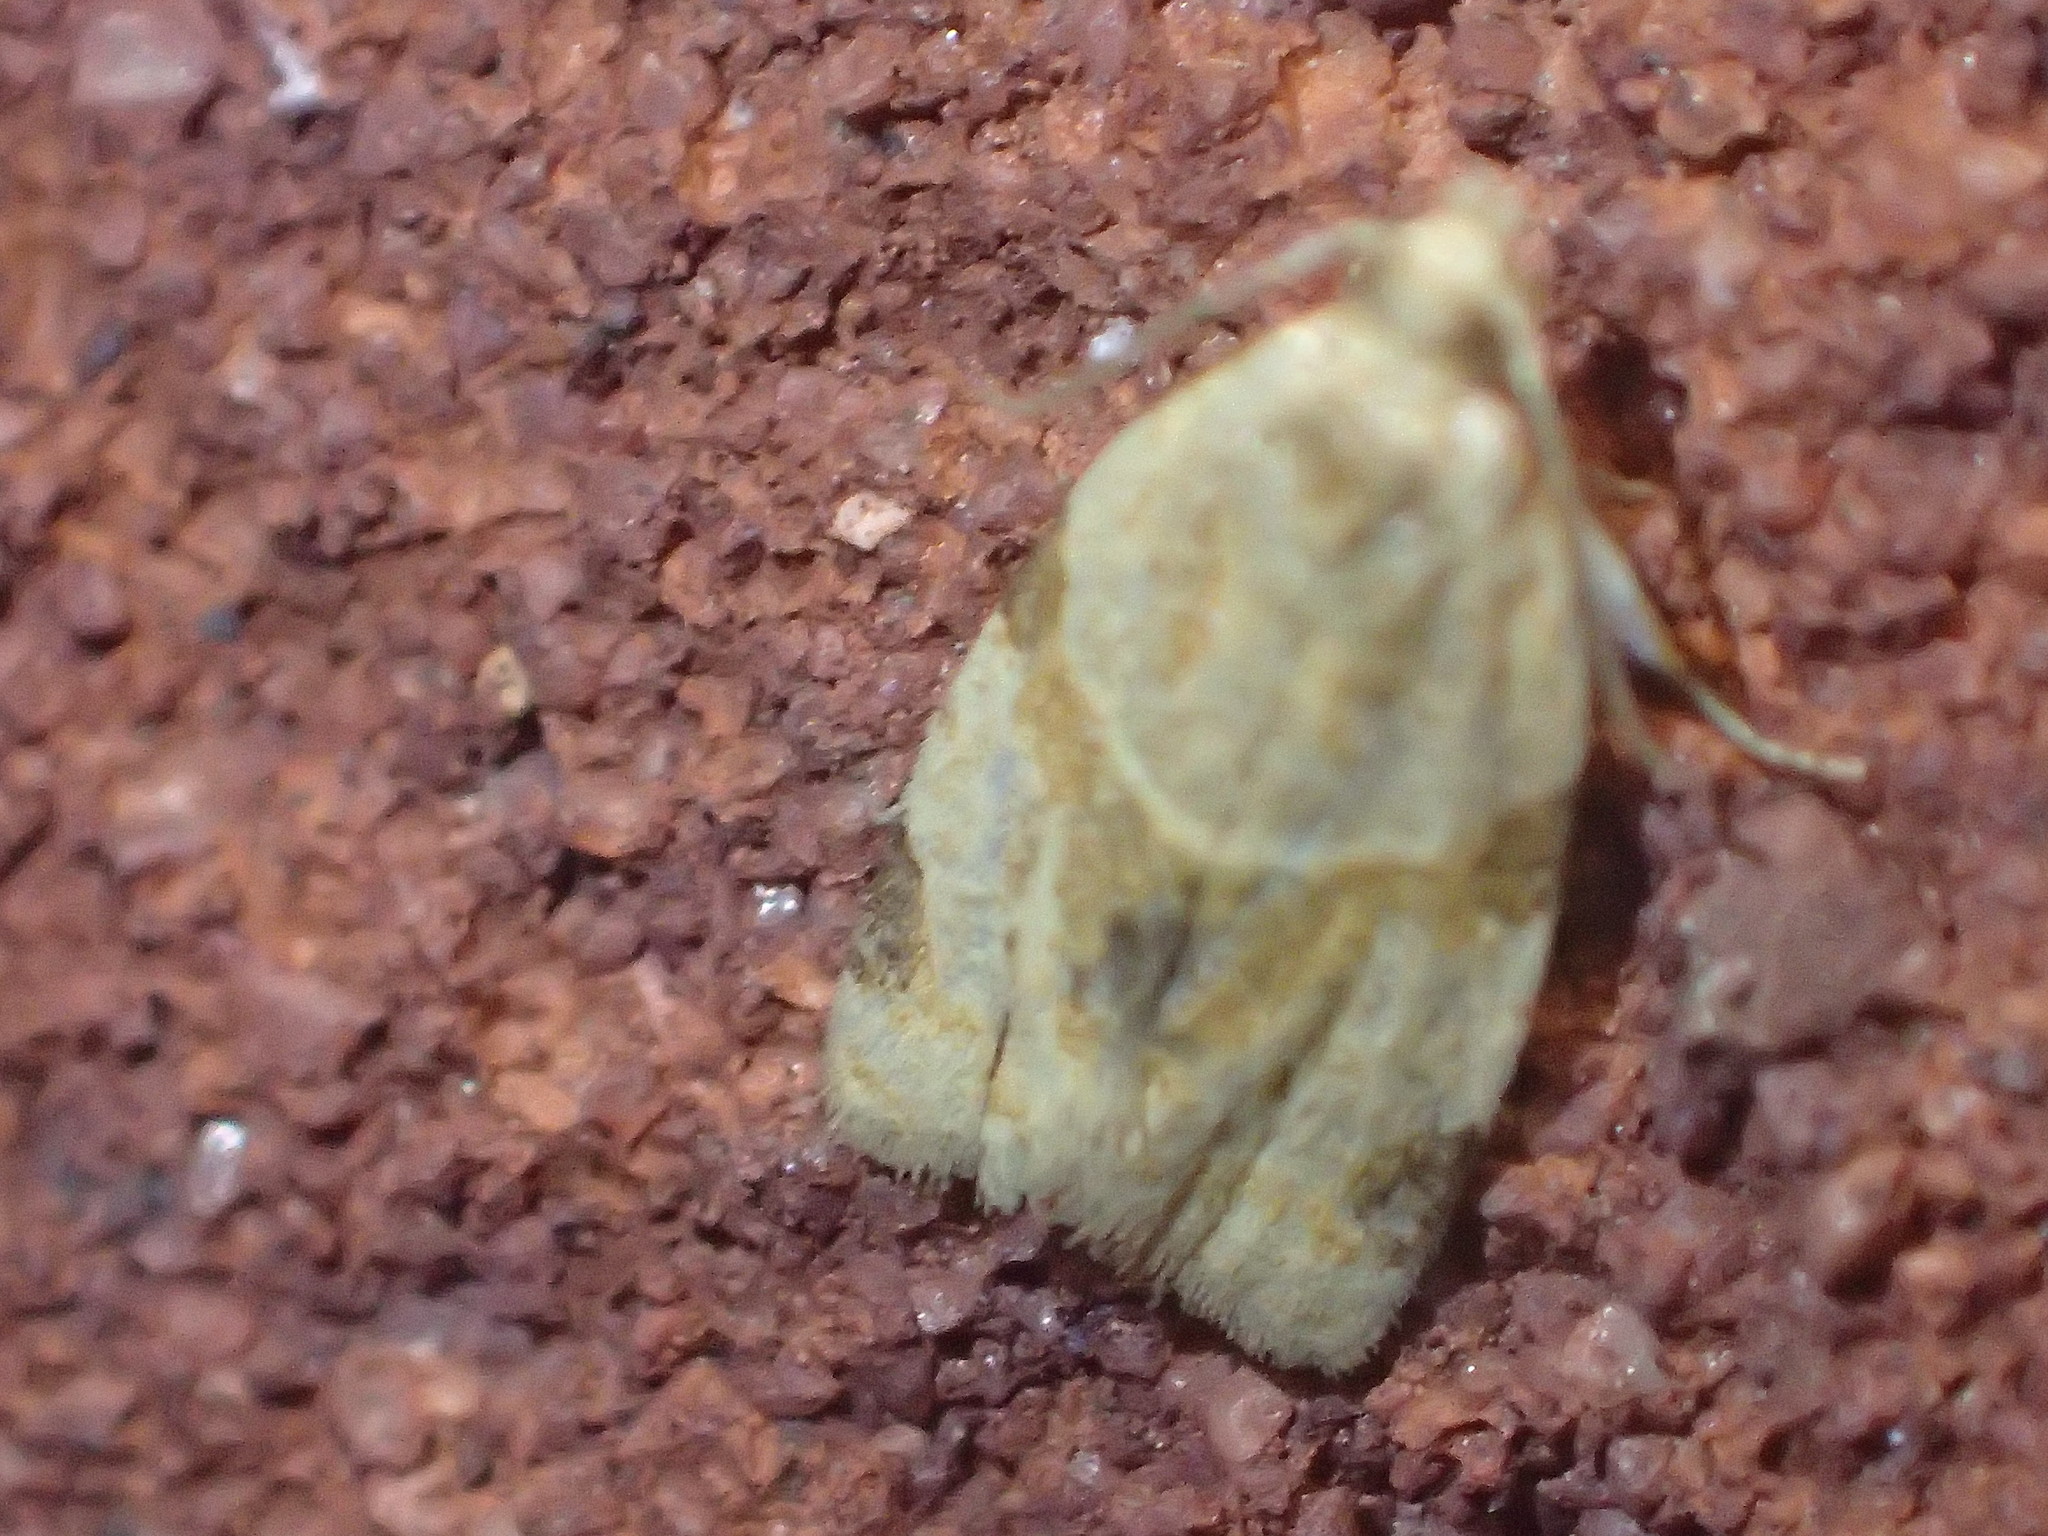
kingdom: Animalia
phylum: Arthropoda
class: Insecta
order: Lepidoptera
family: Tortricidae
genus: Clepsis
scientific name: Clepsis peritana
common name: Garden tortrix
